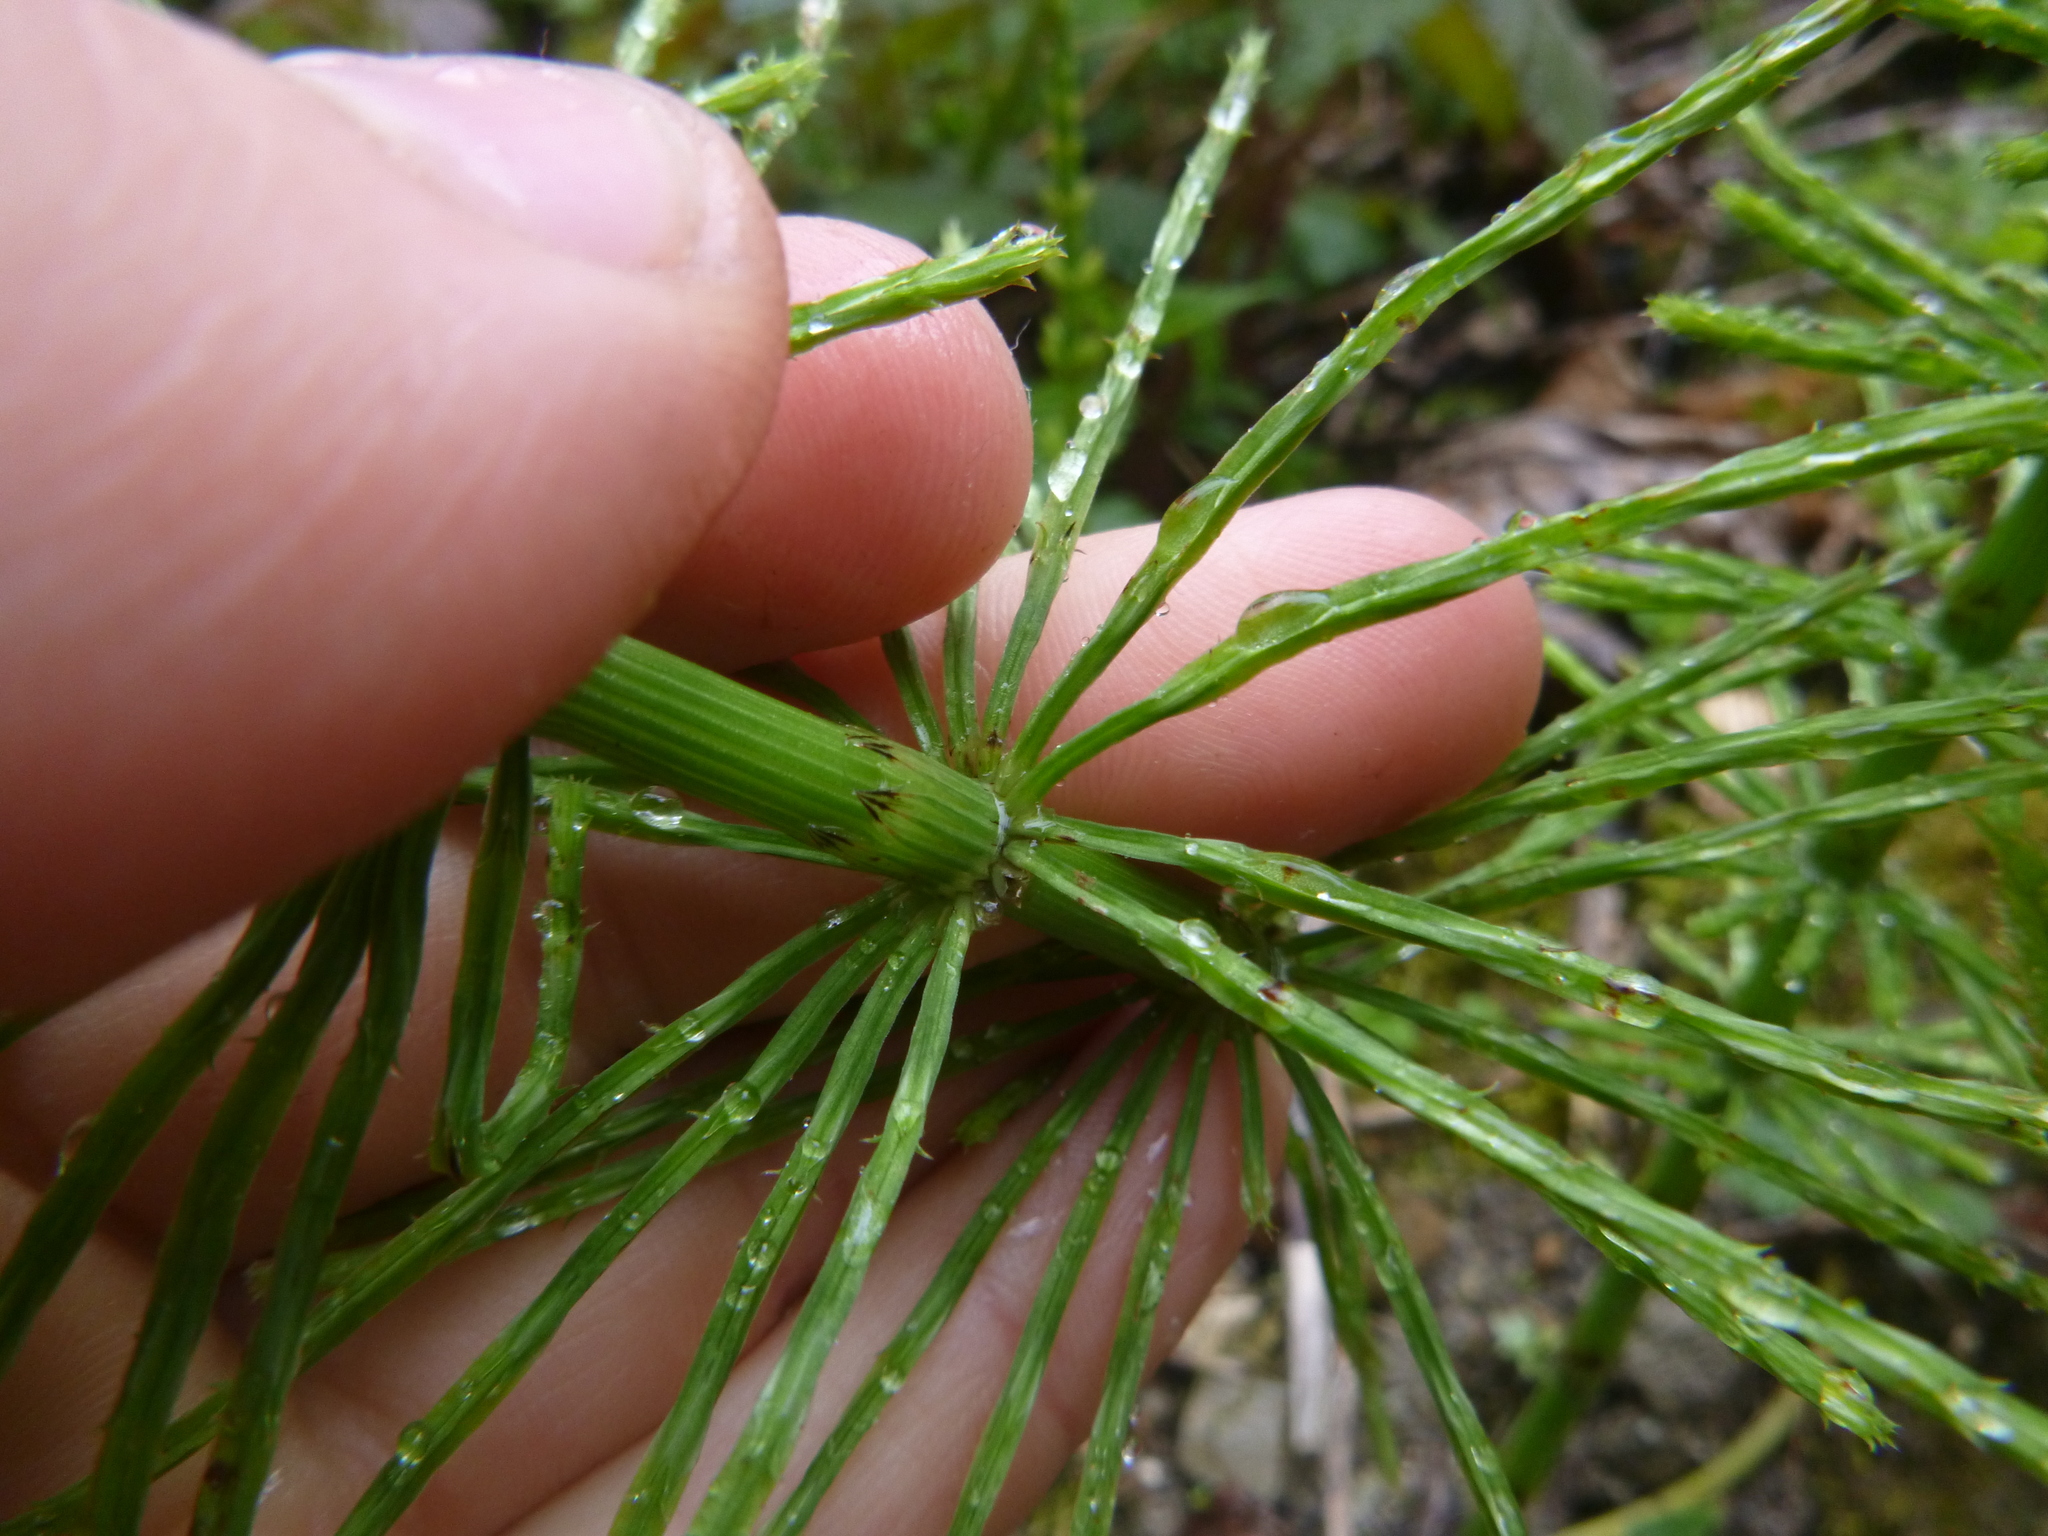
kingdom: Plantae
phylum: Tracheophyta
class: Polypodiopsida
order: Equisetales
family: Equisetaceae
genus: Equisetum
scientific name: Equisetum arvense
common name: Field horsetail
